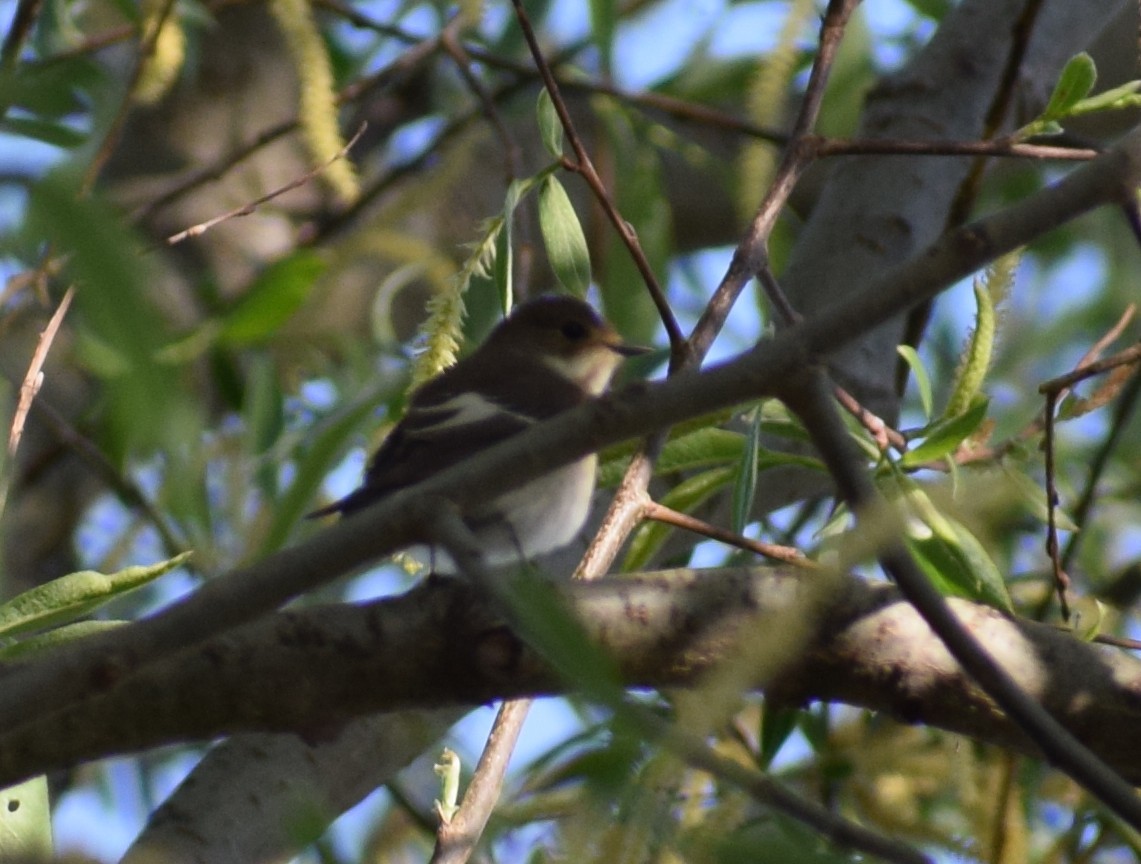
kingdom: Animalia
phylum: Chordata
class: Aves
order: Passeriformes
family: Muscicapidae
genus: Ficedula
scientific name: Ficedula hypoleuca
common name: European pied flycatcher
